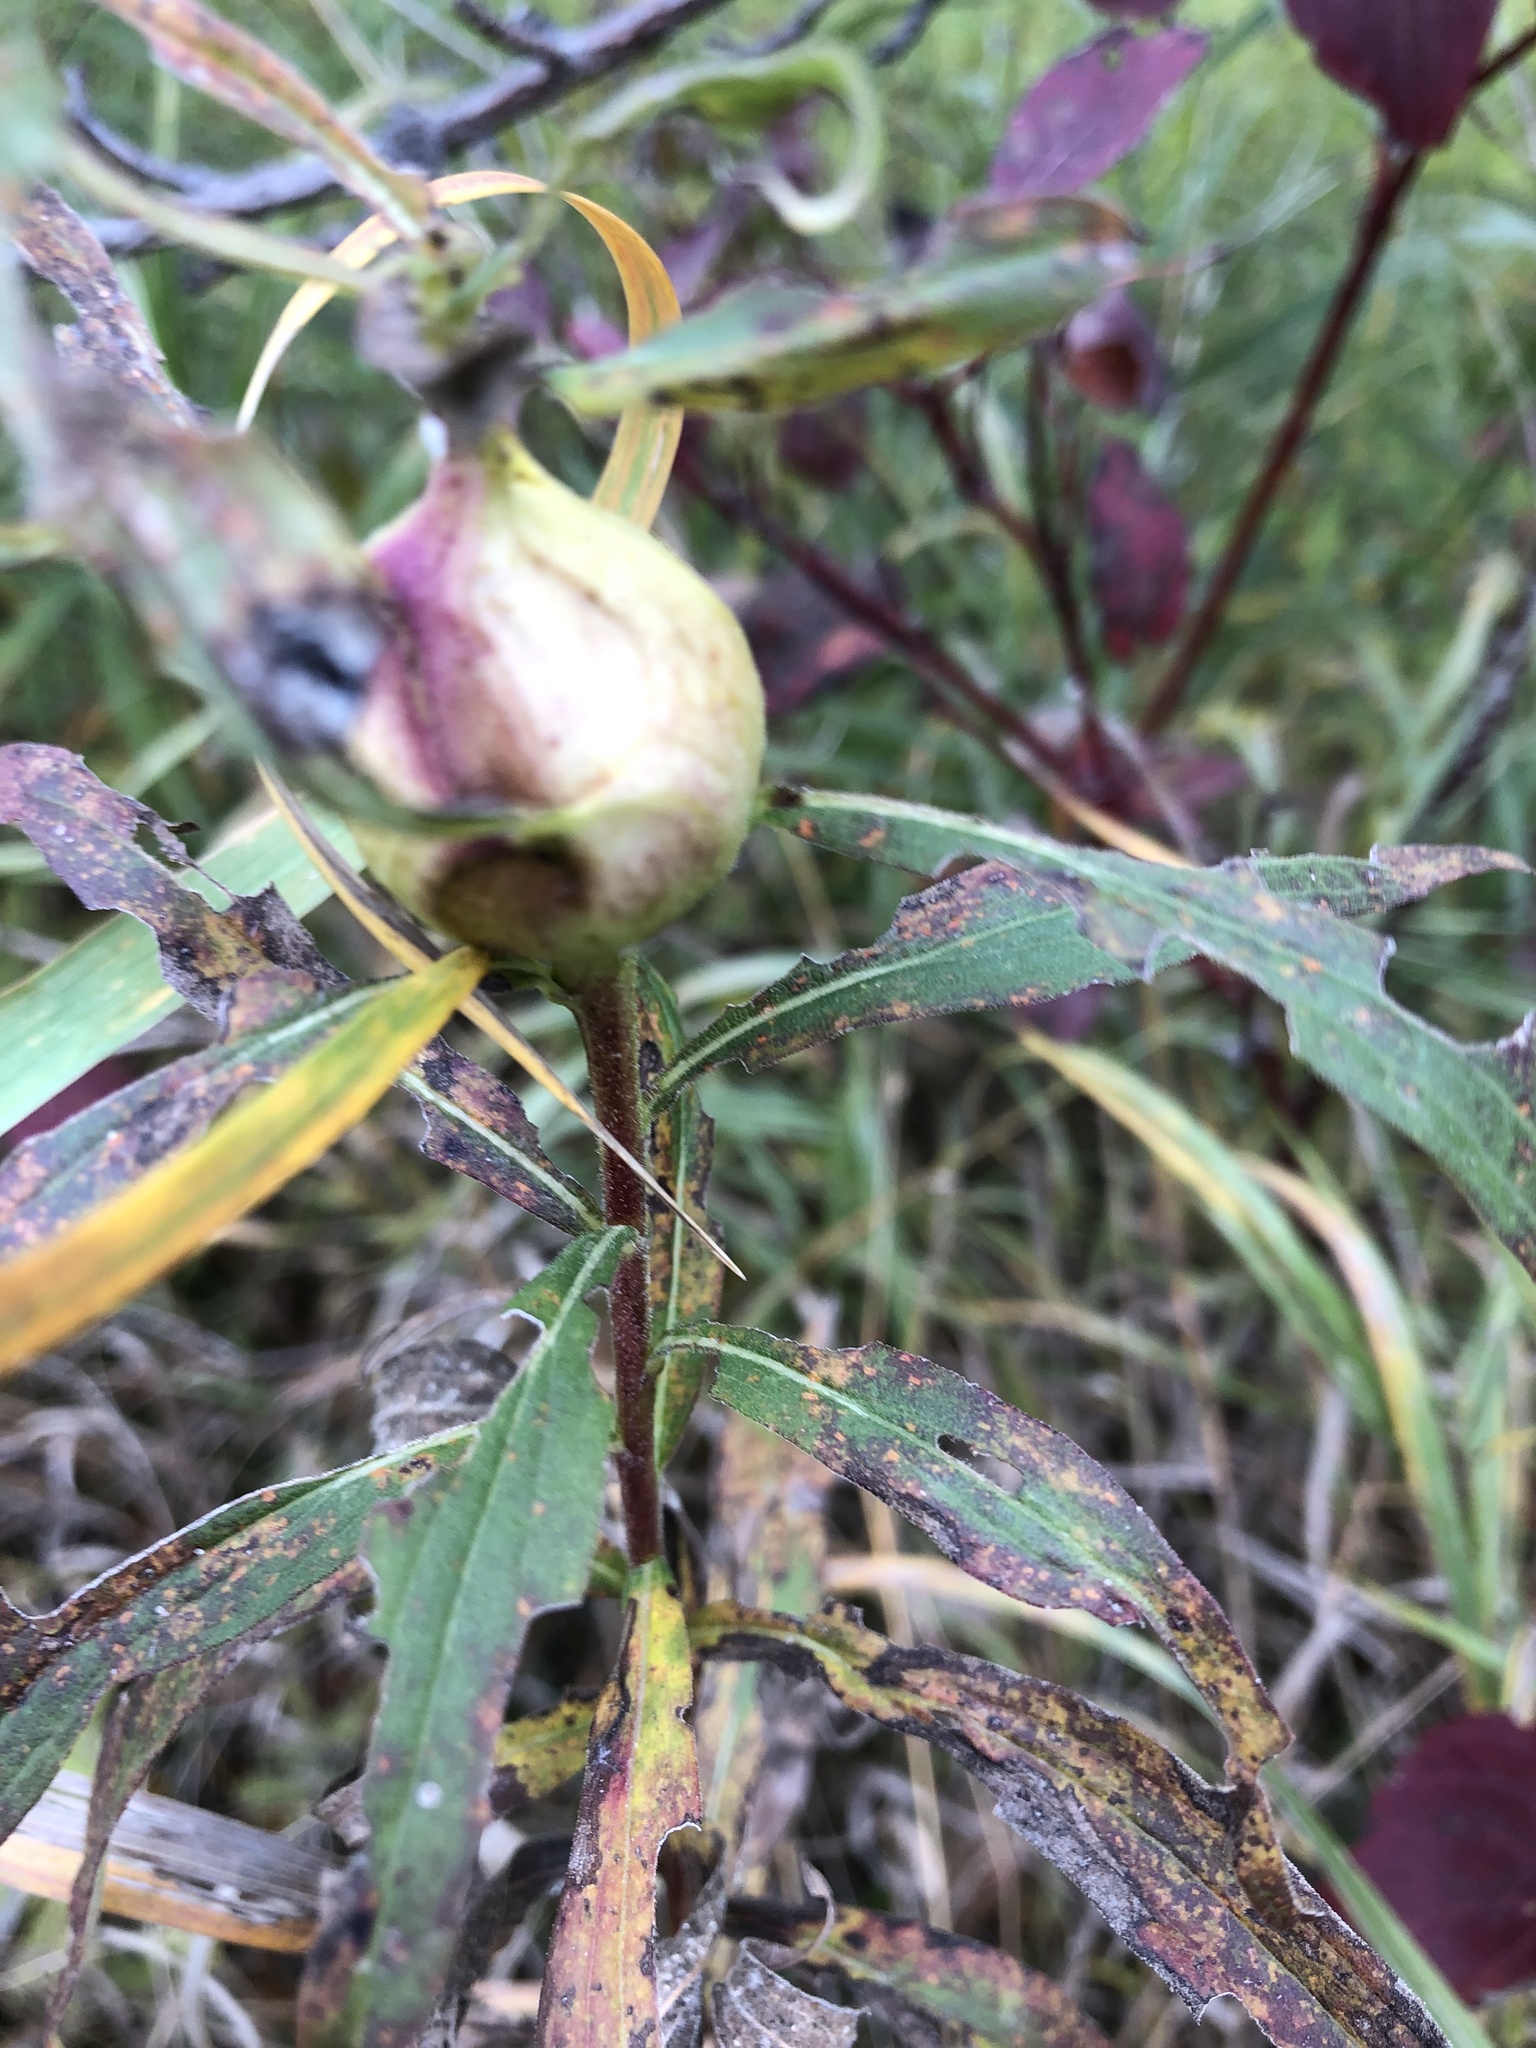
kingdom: Animalia
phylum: Arthropoda
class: Insecta
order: Diptera
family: Tephritidae
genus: Eurosta
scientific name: Eurosta solidaginis
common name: Goldenrod gall fly
